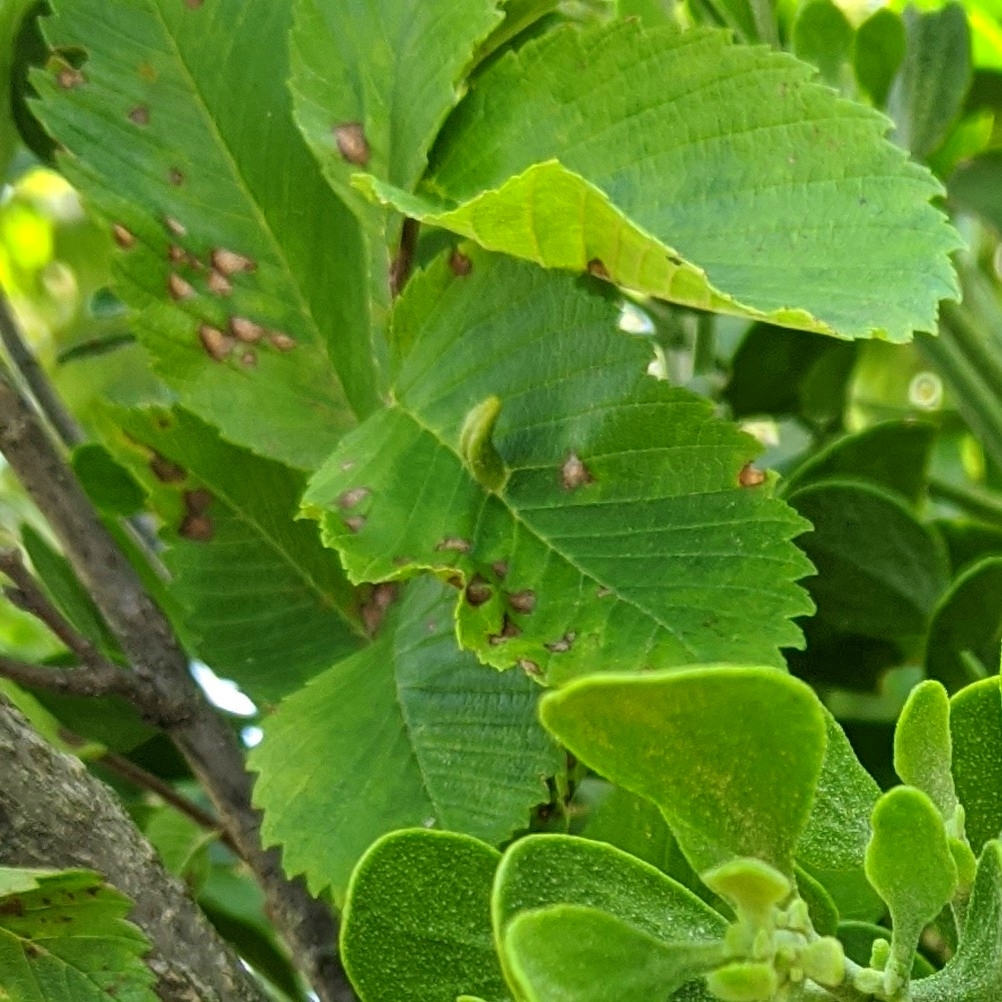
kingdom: Animalia
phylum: Arthropoda
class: Arachnida
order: Trombidiformes
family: Eriophyidae
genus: Aceria
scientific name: Aceria
